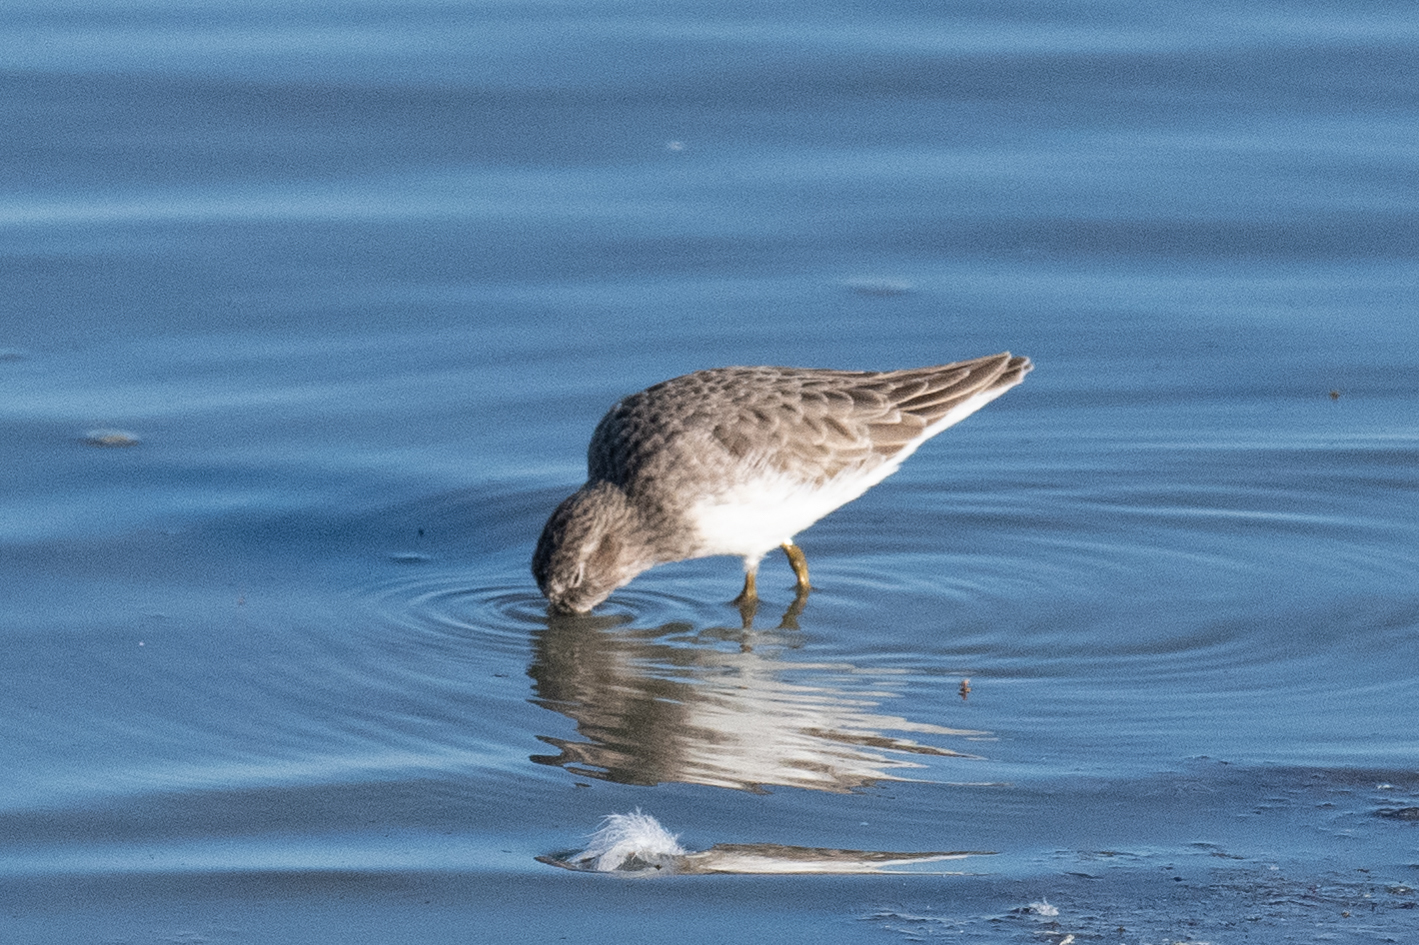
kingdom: Animalia
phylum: Chordata
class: Aves
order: Charadriiformes
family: Scolopacidae
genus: Calidris
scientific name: Calidris minutilla
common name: Least sandpiper
